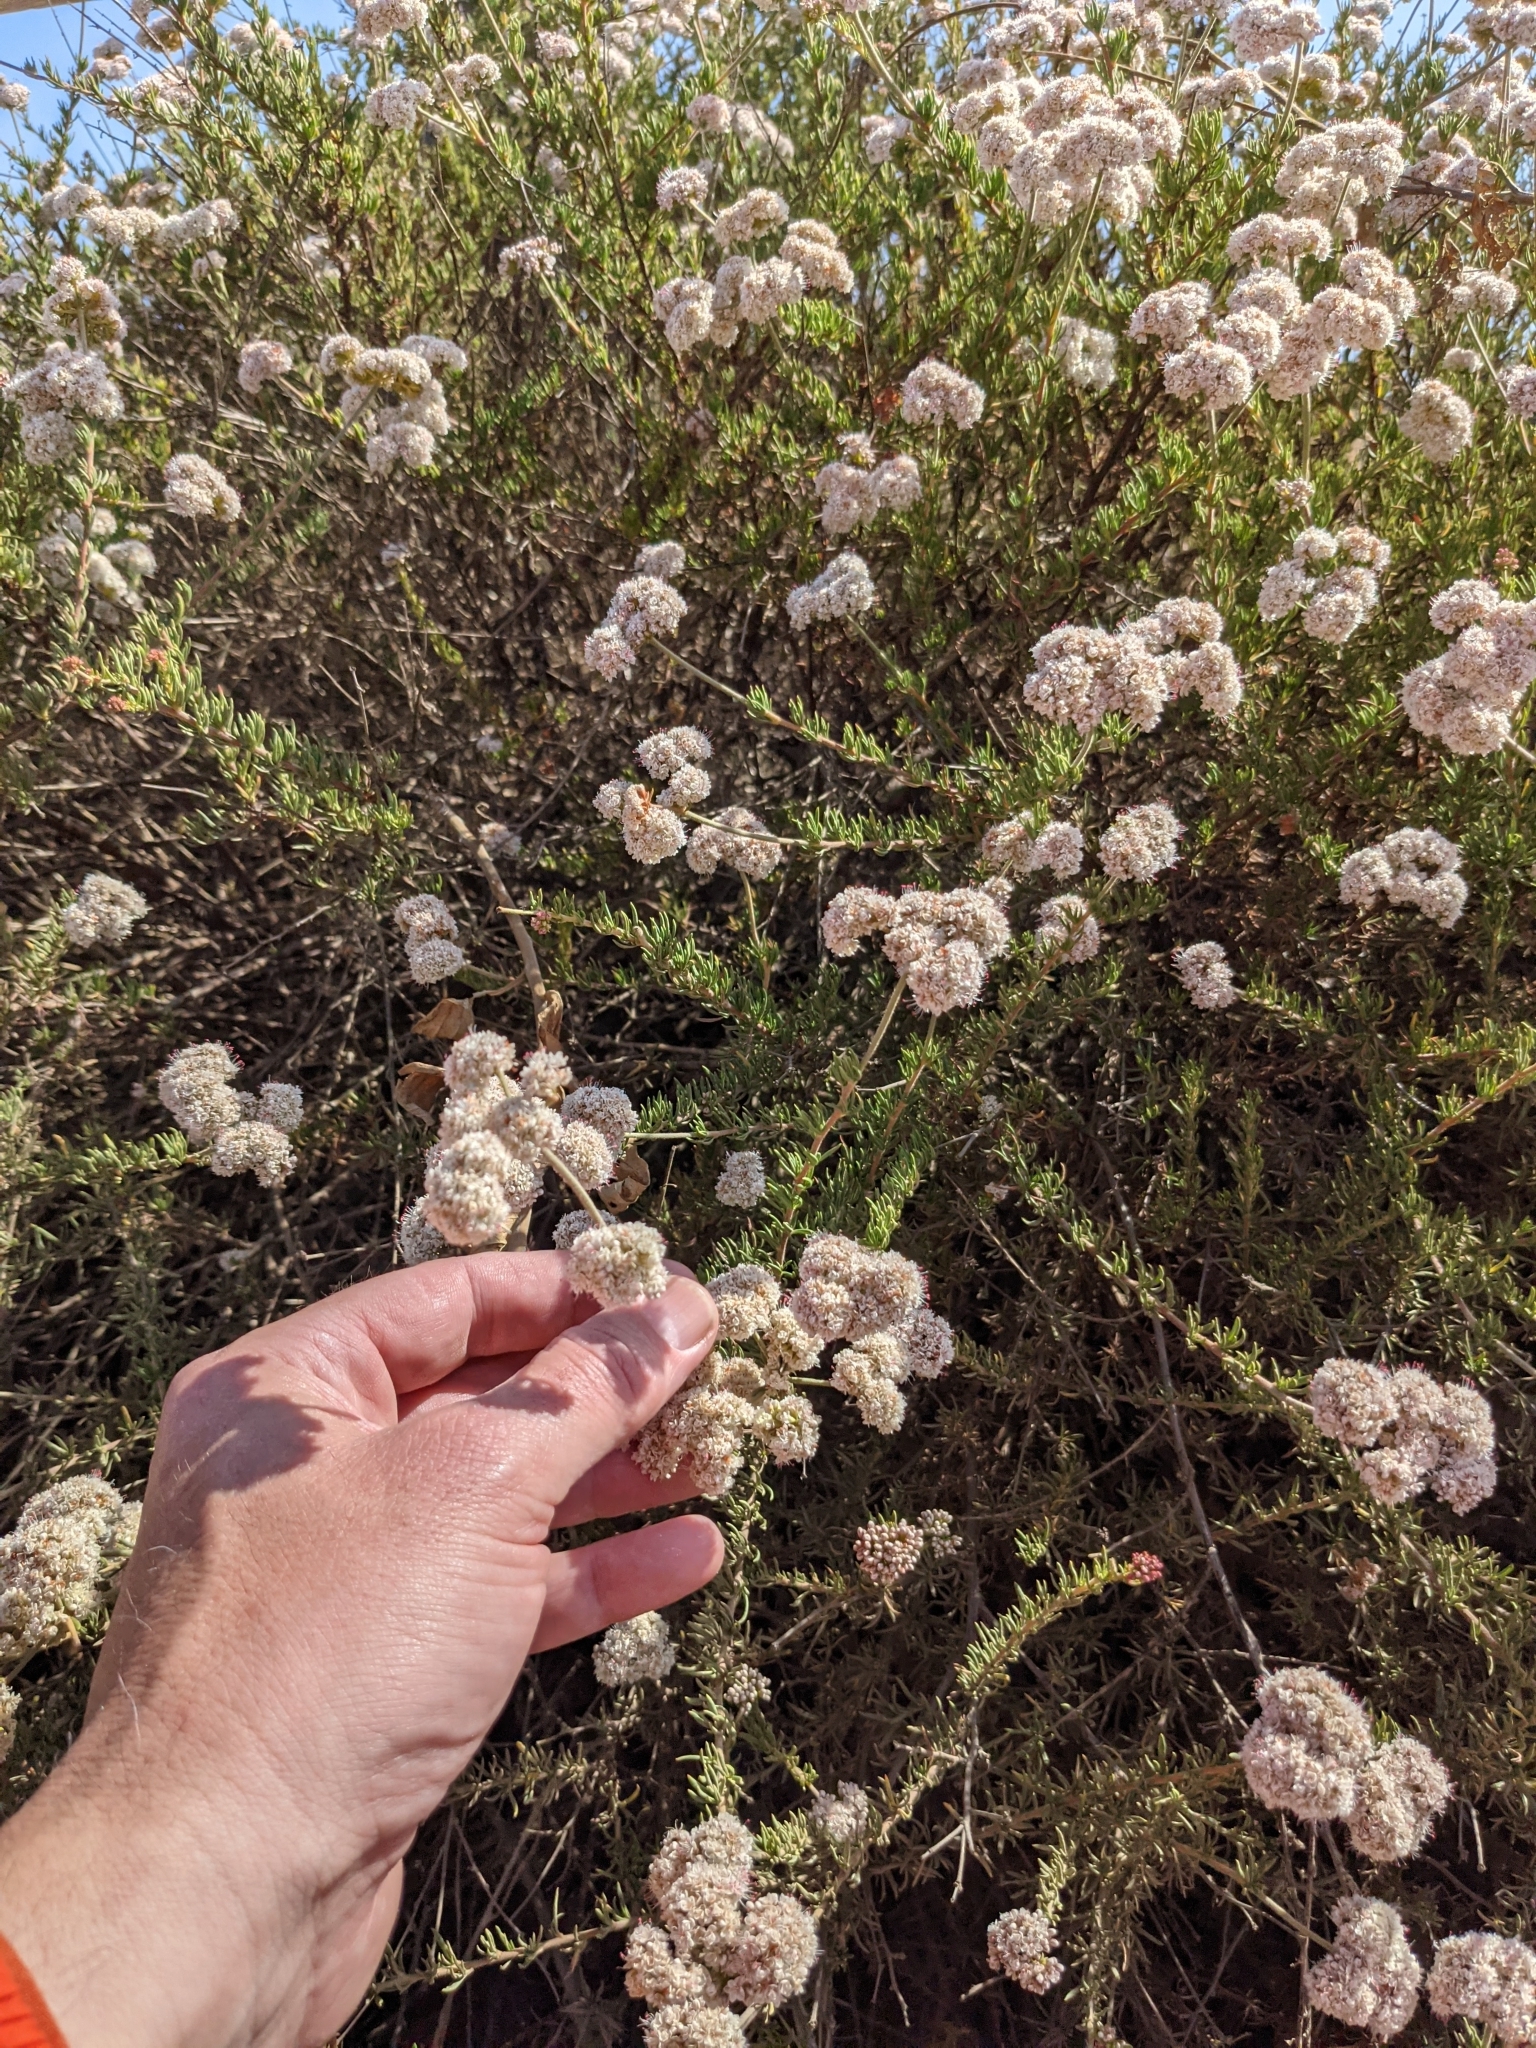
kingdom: Plantae
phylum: Tracheophyta
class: Magnoliopsida
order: Caryophyllales
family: Polygonaceae
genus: Eriogonum
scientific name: Eriogonum fasciculatum
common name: California wild buckwheat
